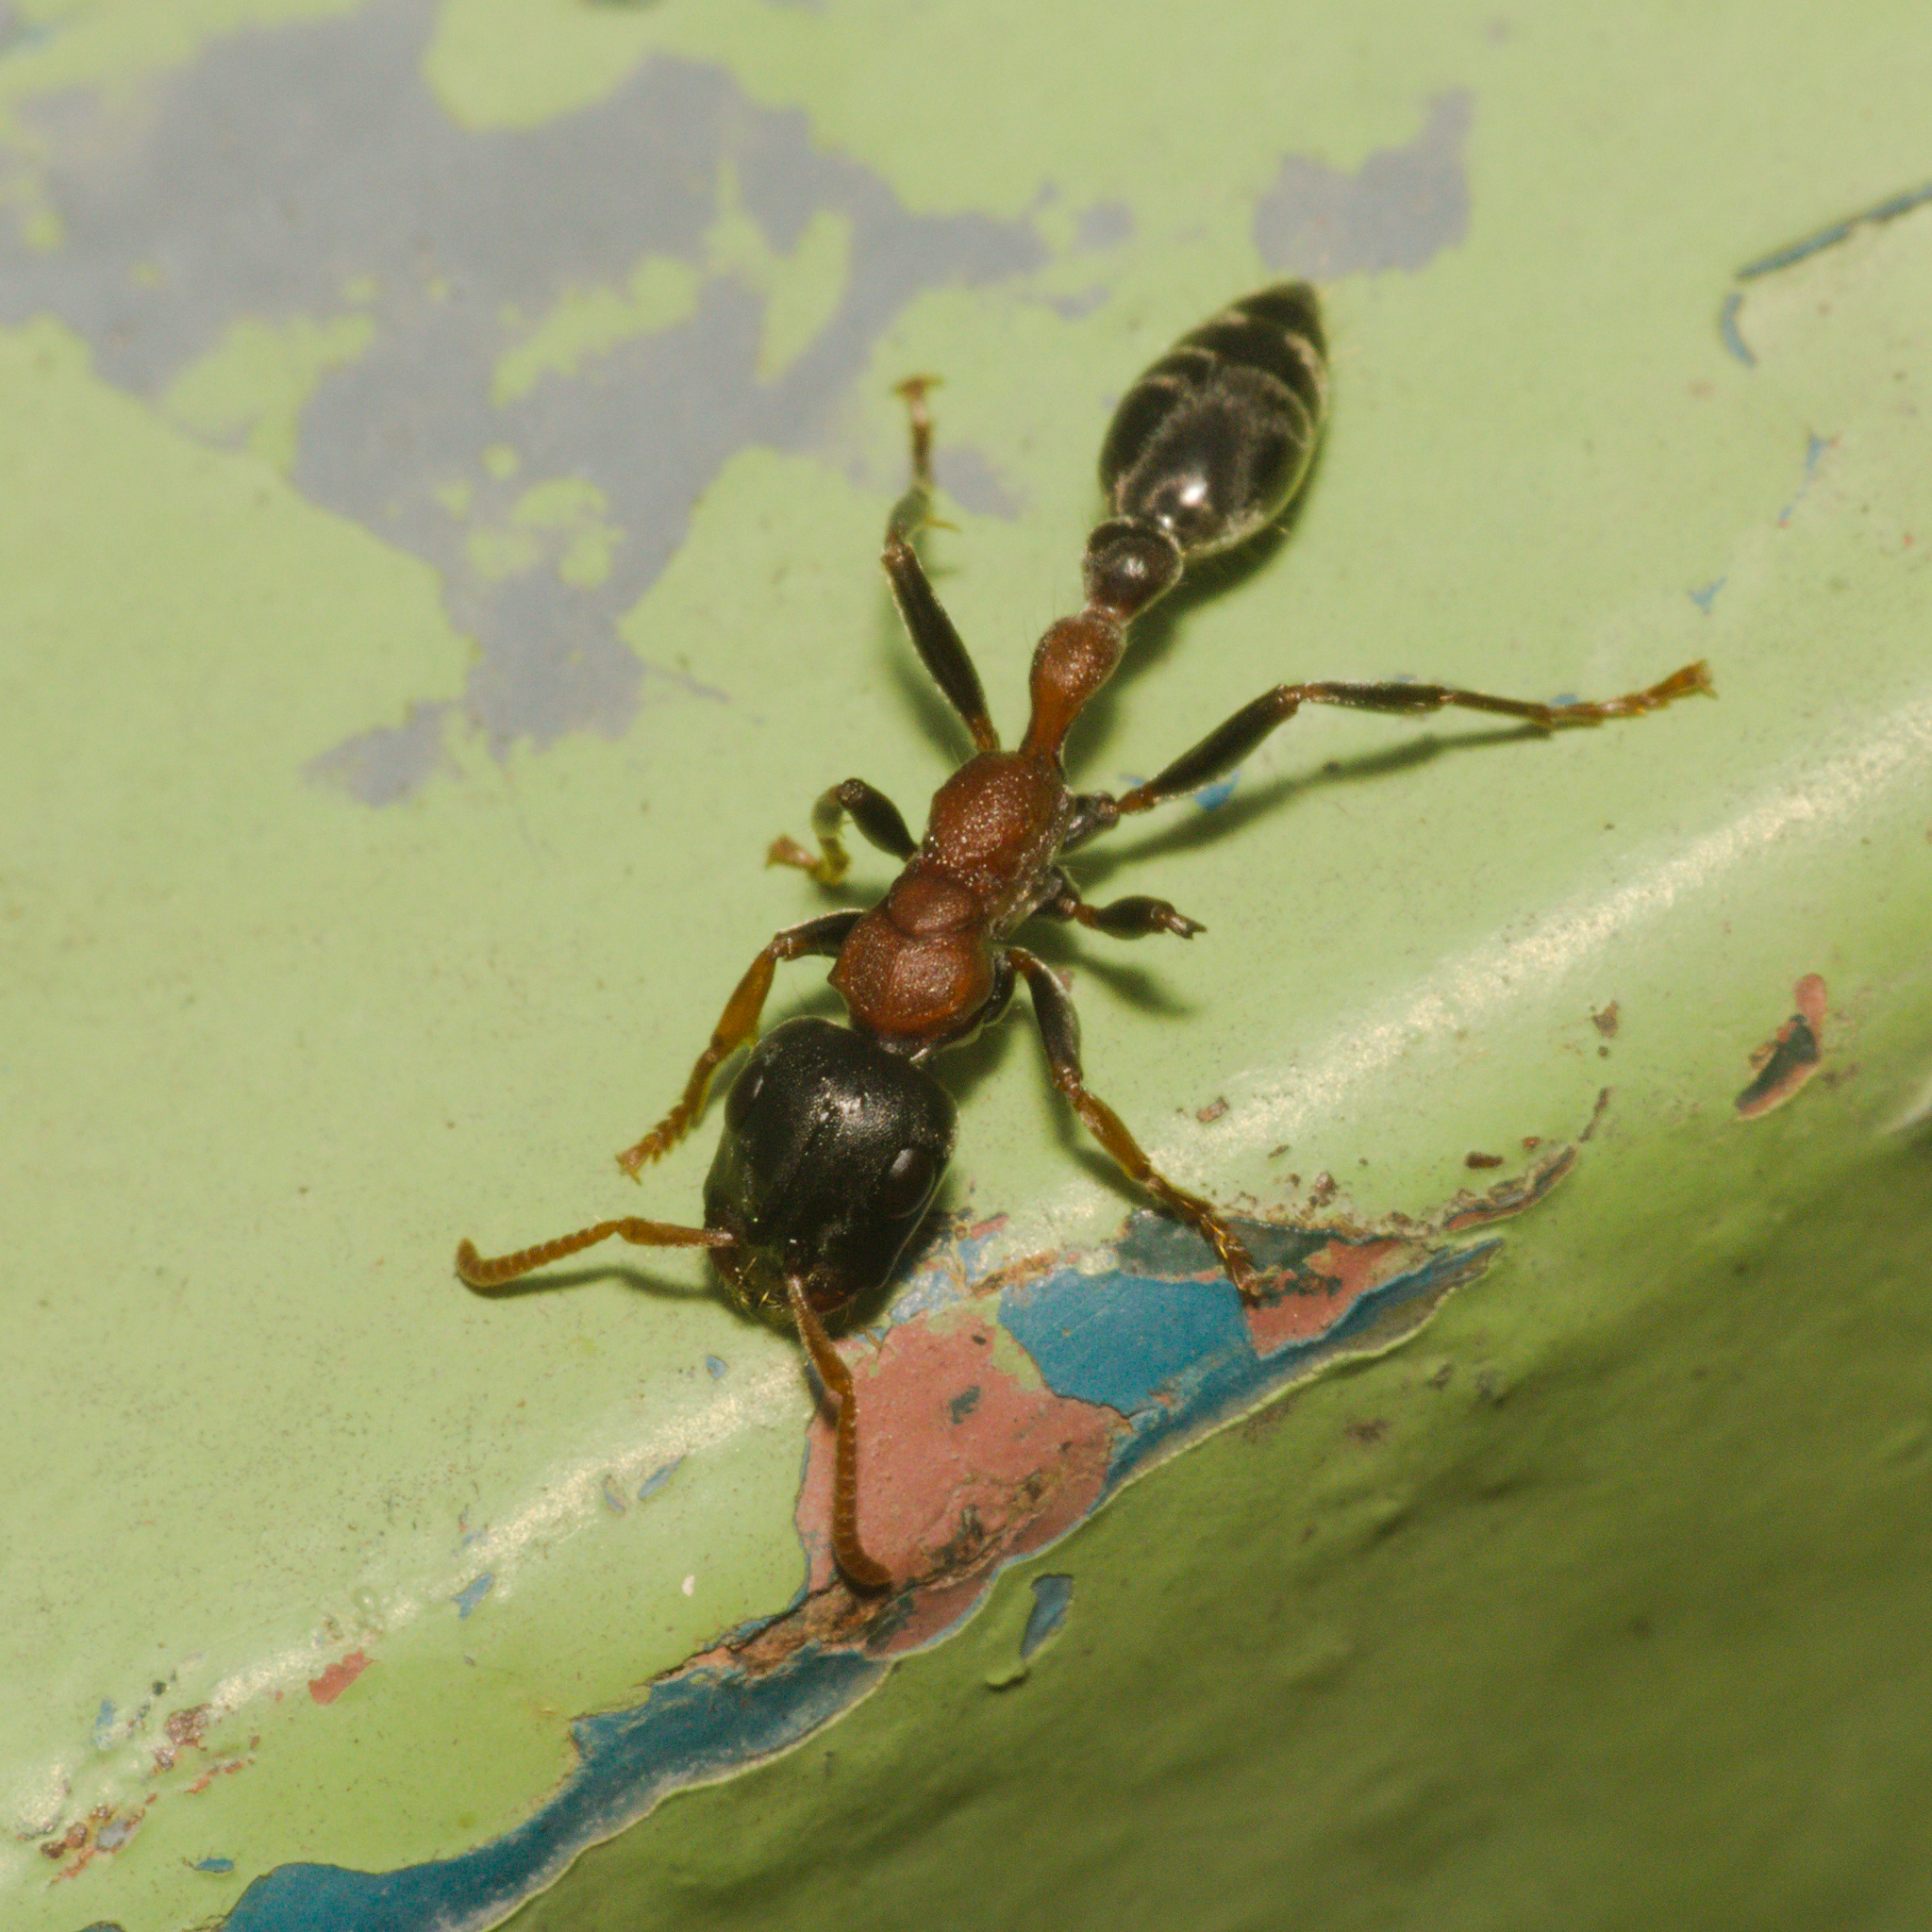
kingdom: Animalia
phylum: Arthropoda
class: Insecta
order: Hymenoptera
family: Formicidae
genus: Tetraponera
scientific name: Tetraponera rufonigra
